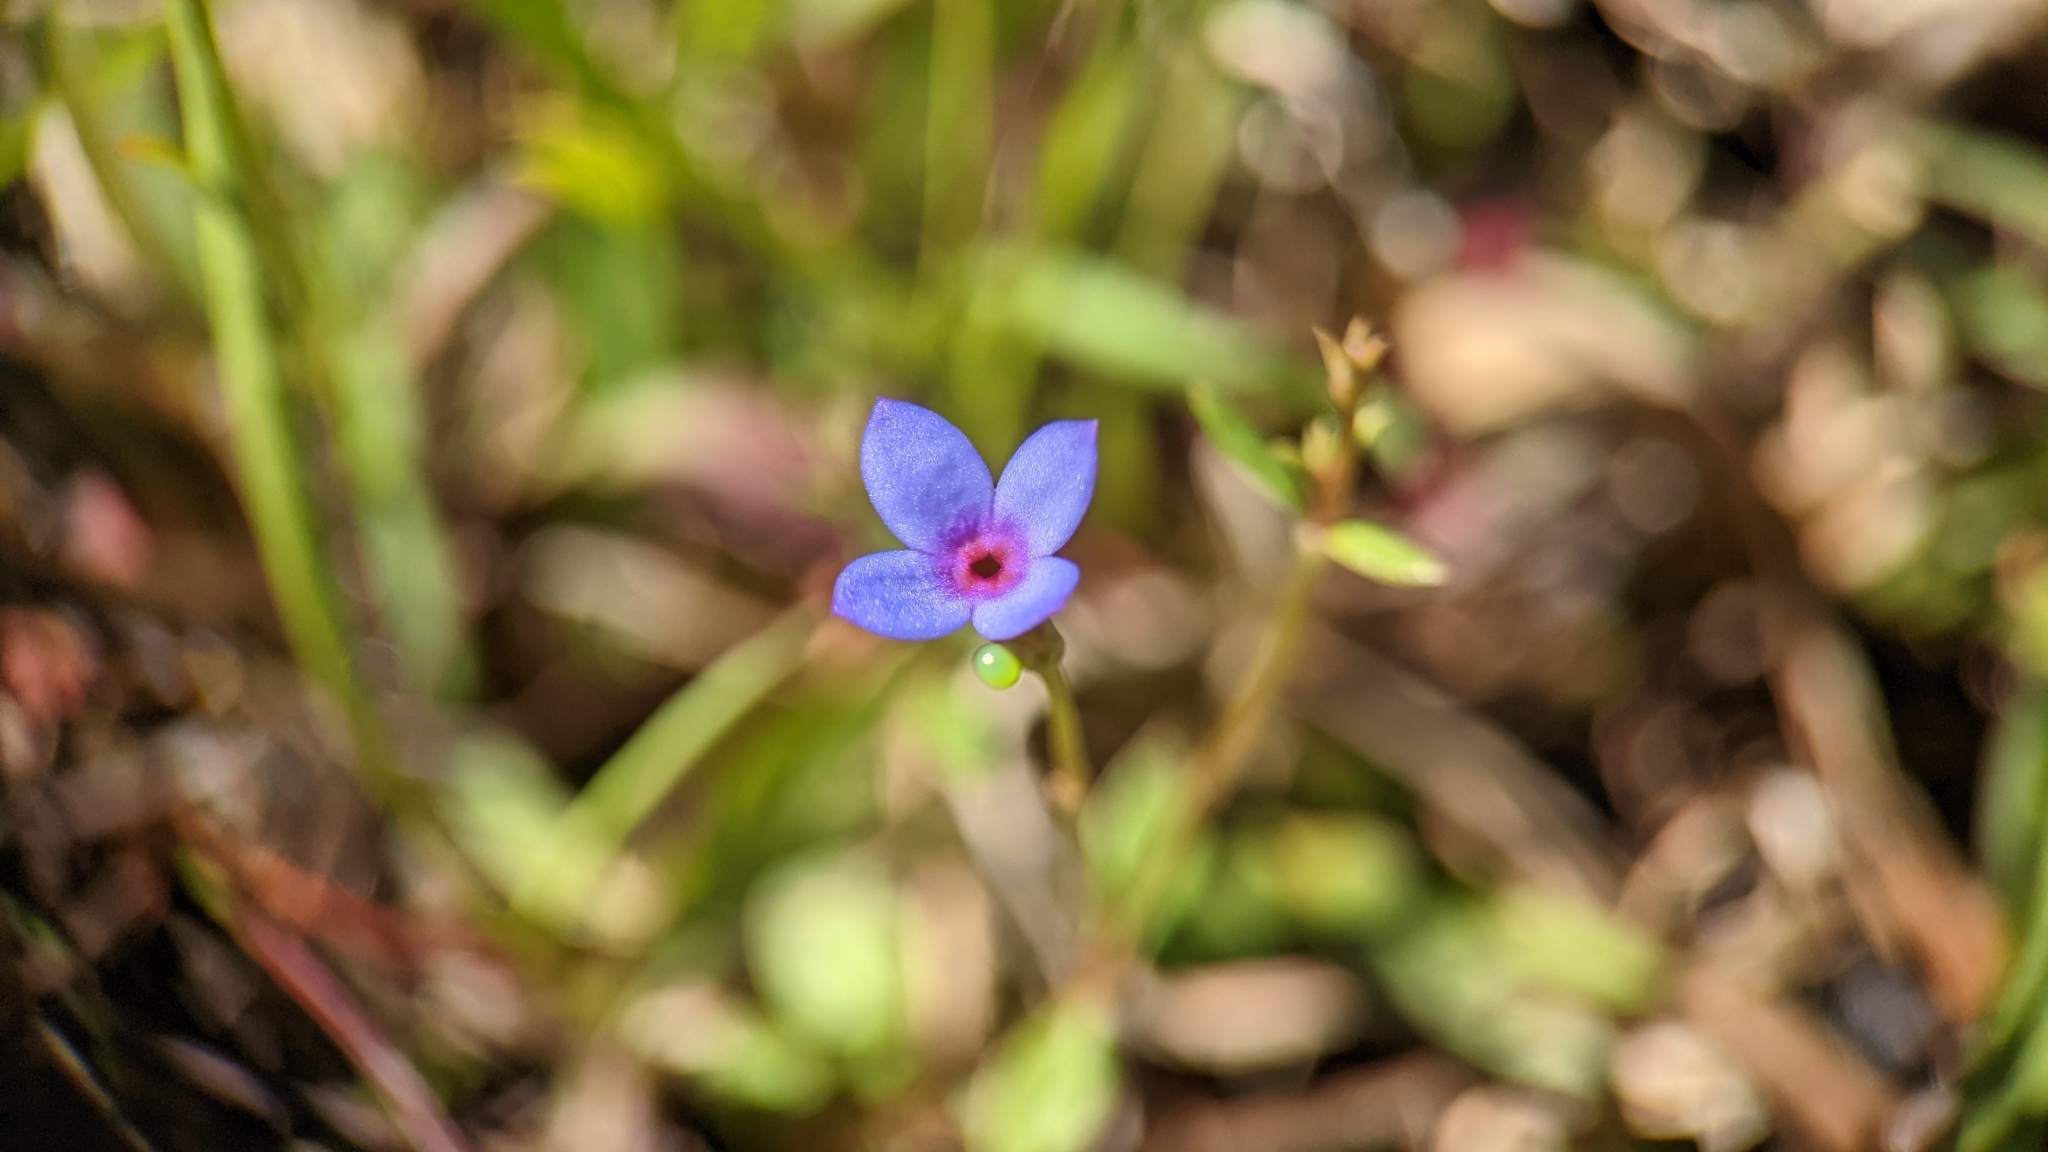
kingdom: Plantae
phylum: Tracheophyta
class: Magnoliopsida
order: Gentianales
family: Rubiaceae
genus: Houstonia
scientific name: Houstonia pusilla
